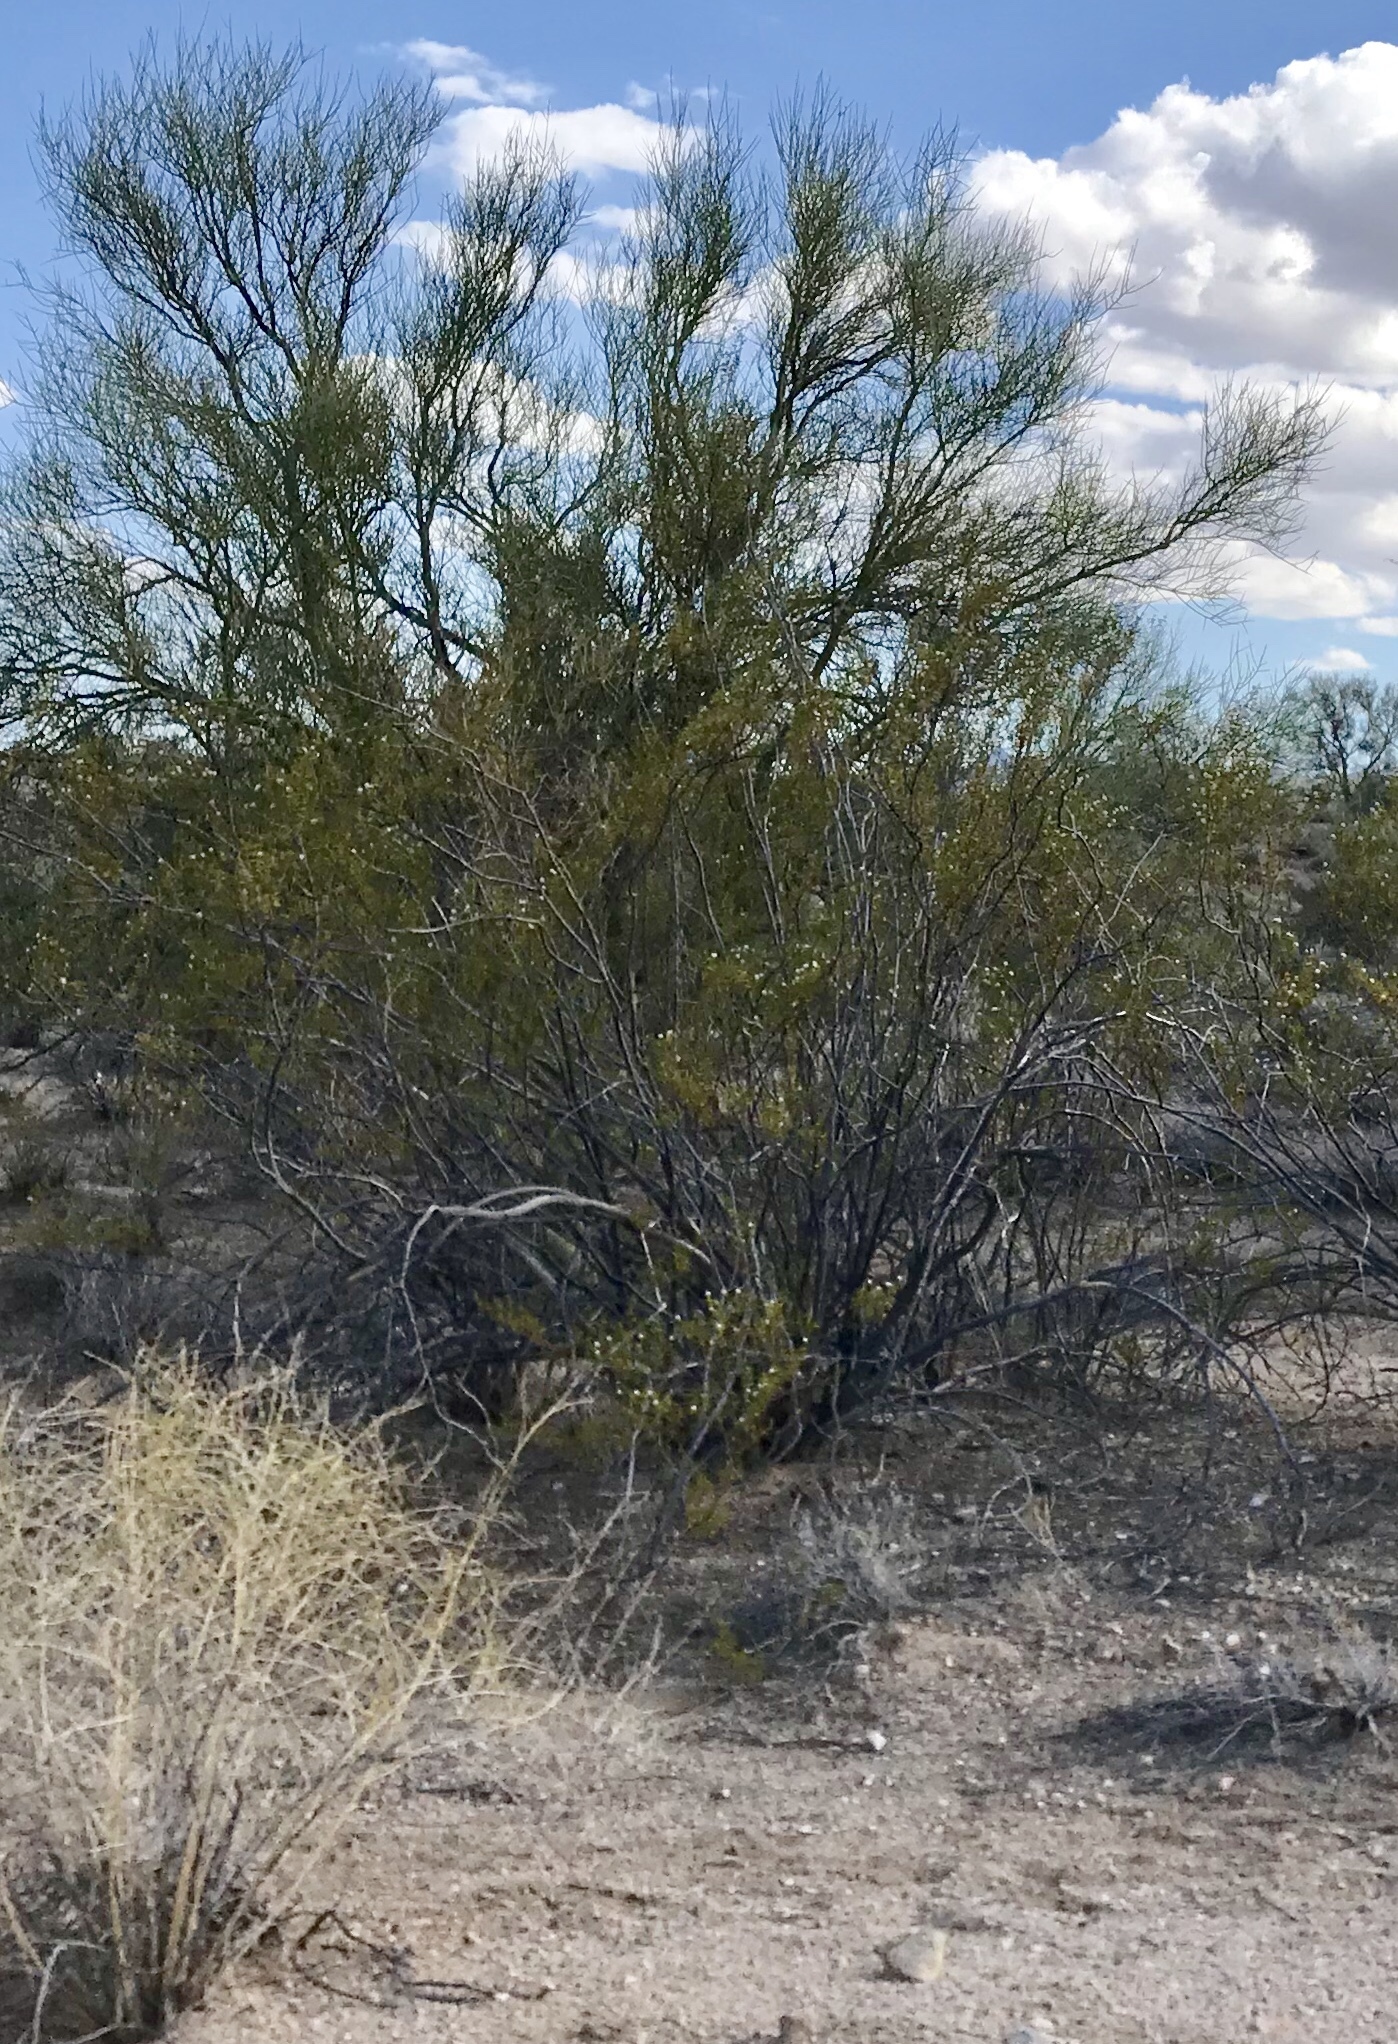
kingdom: Plantae
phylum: Tracheophyta
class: Magnoliopsida
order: Zygophyllales
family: Zygophyllaceae
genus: Larrea
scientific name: Larrea tridentata
